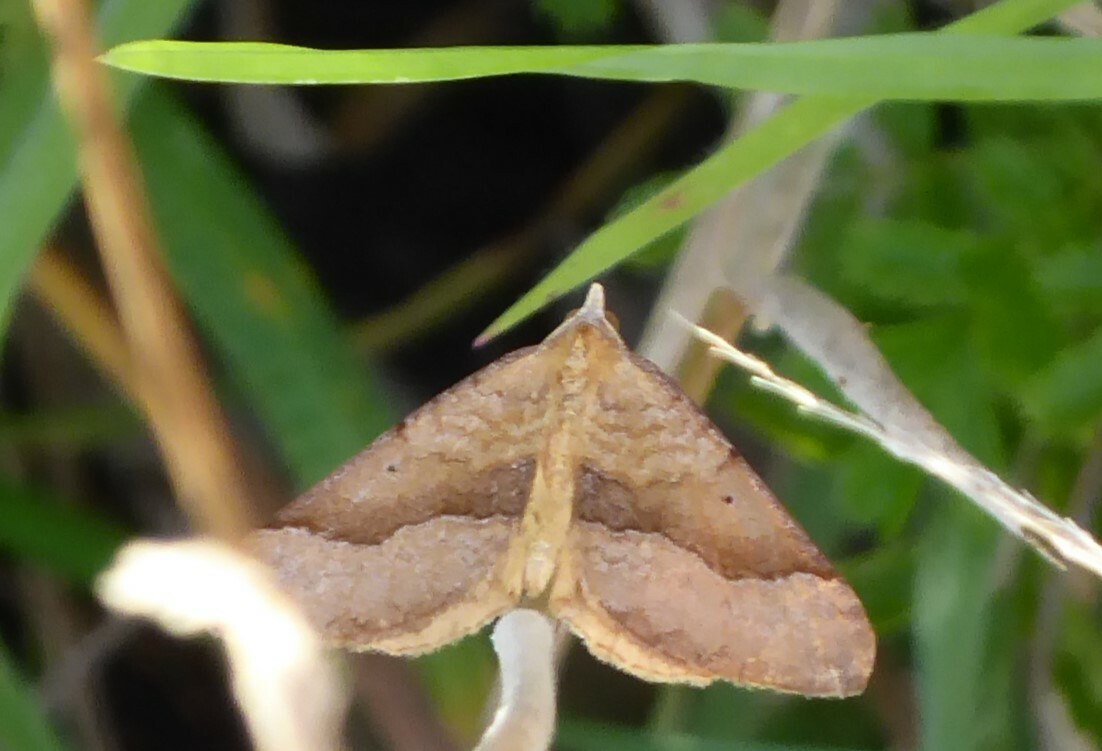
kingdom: Animalia
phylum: Arthropoda
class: Insecta
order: Lepidoptera
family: Geometridae
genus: Anachloris
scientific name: Anachloris subochraria
